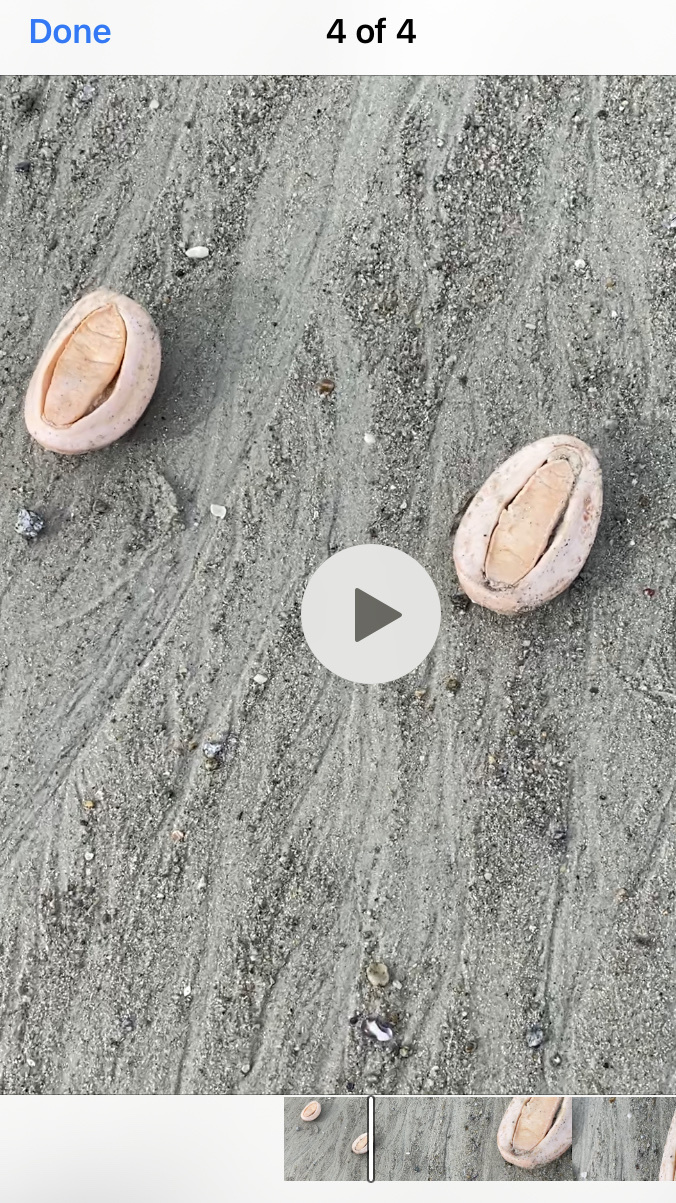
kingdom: Animalia
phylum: Mollusca
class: Polyplacophora
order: Chitonida
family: Acanthochitonidae
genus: Cryptochiton
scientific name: Cryptochiton stelleri
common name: Giant pacific chiton
